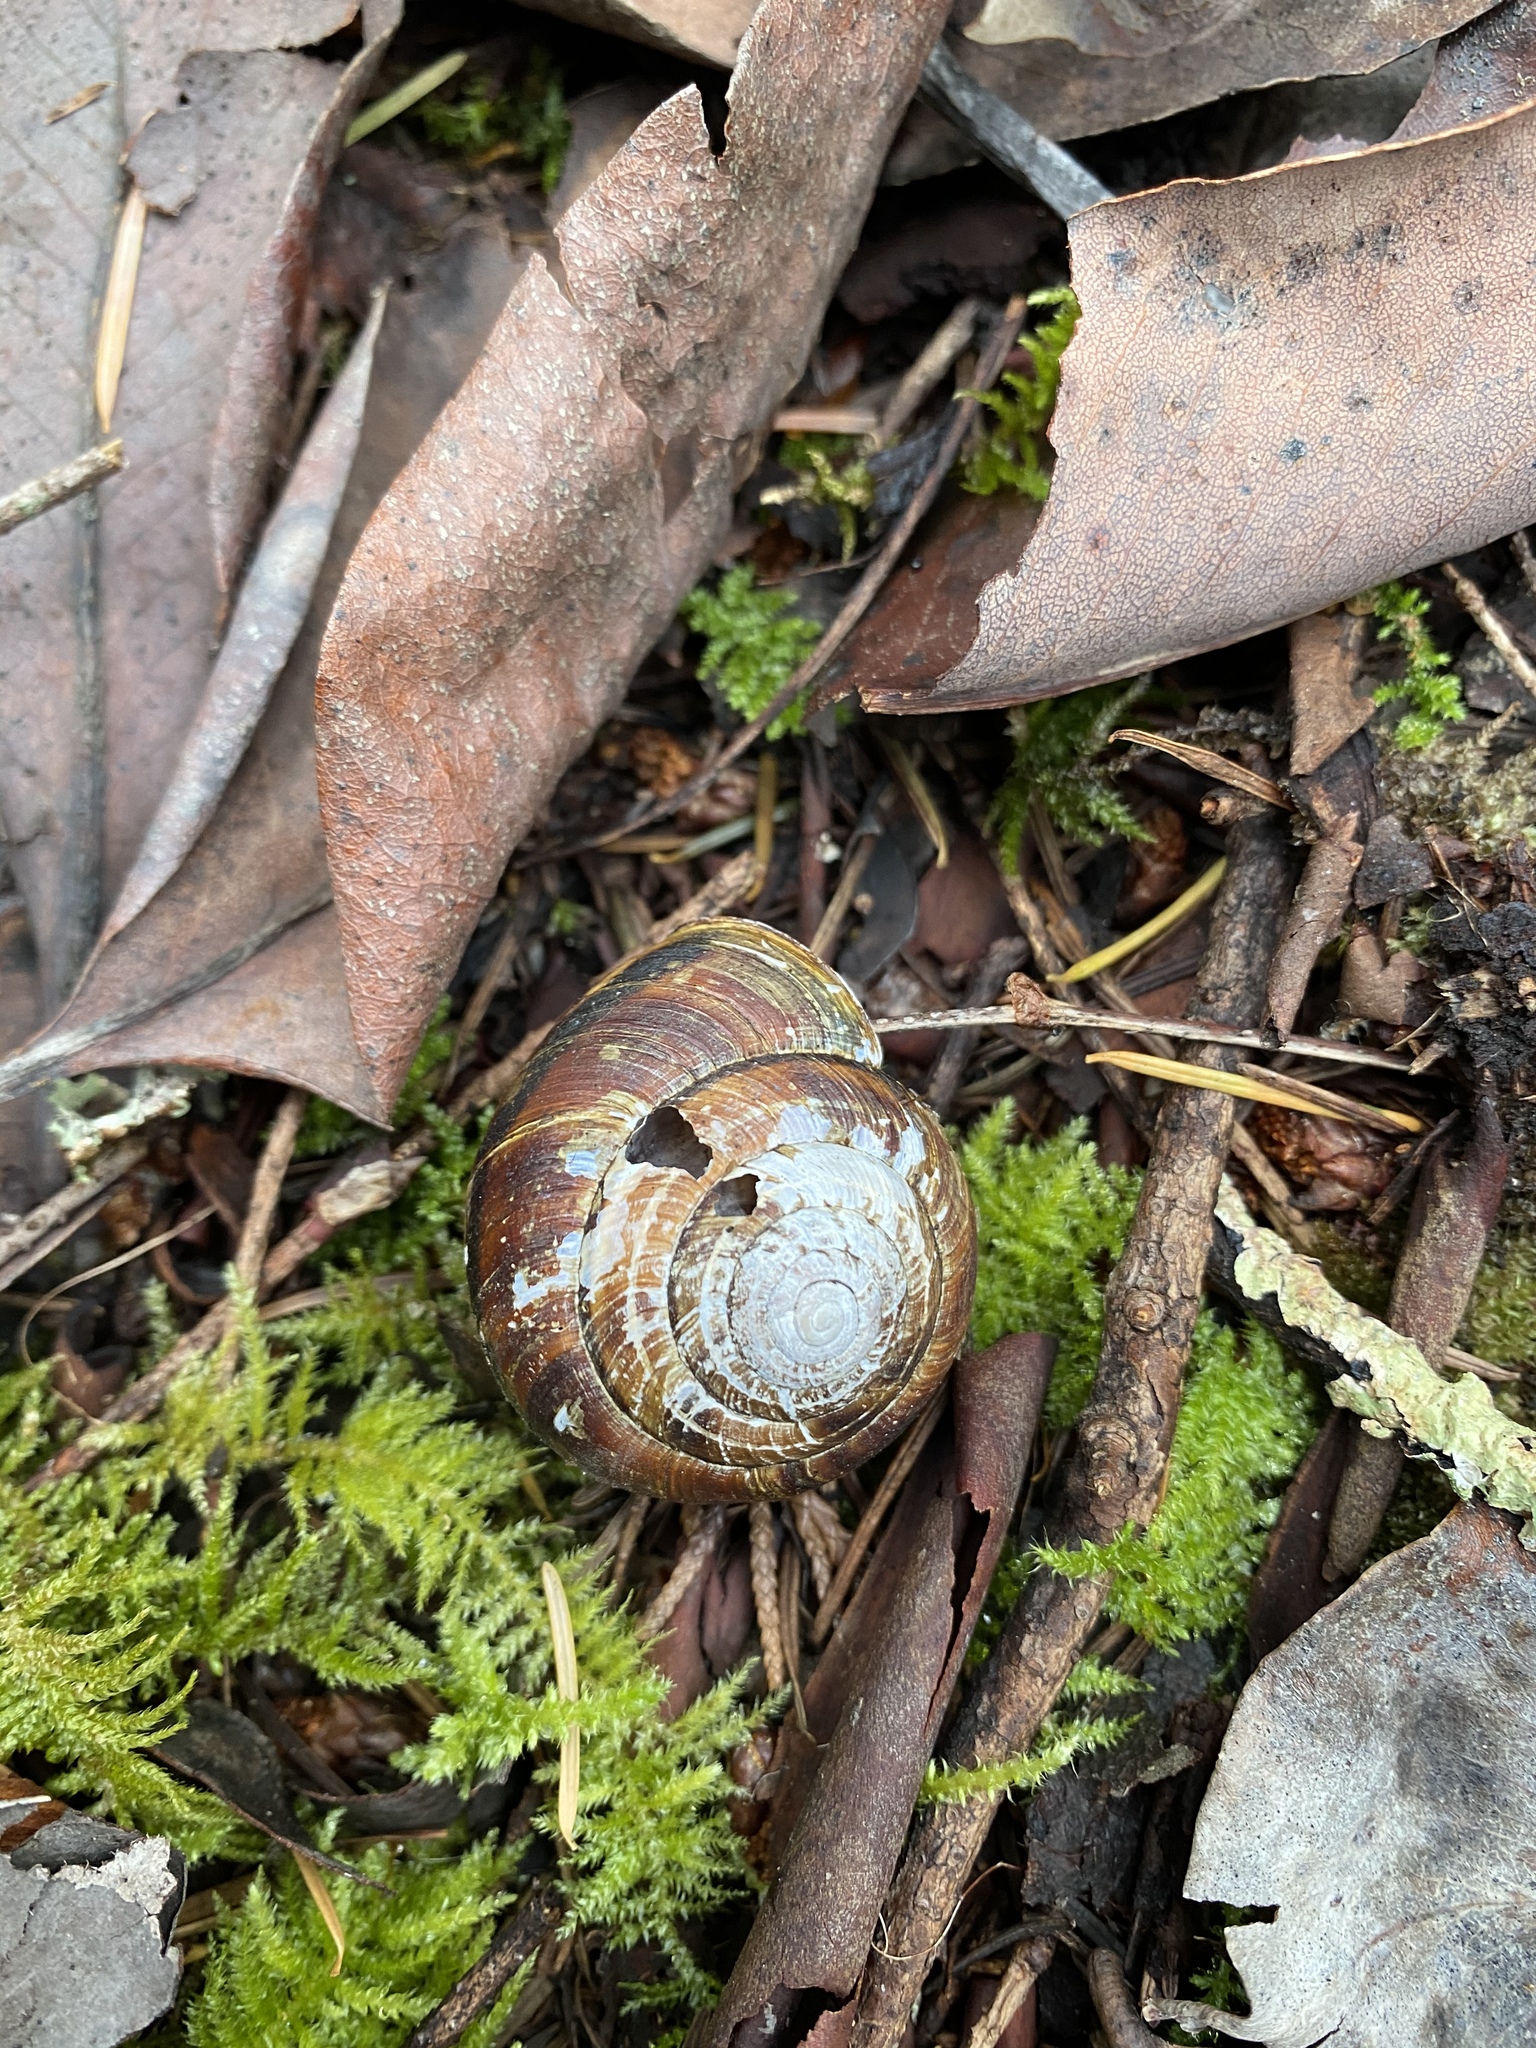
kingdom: Animalia
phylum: Mollusca
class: Gastropoda
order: Stylommatophora
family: Xanthonychidae
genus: Monadenia
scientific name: Monadenia fidelis
